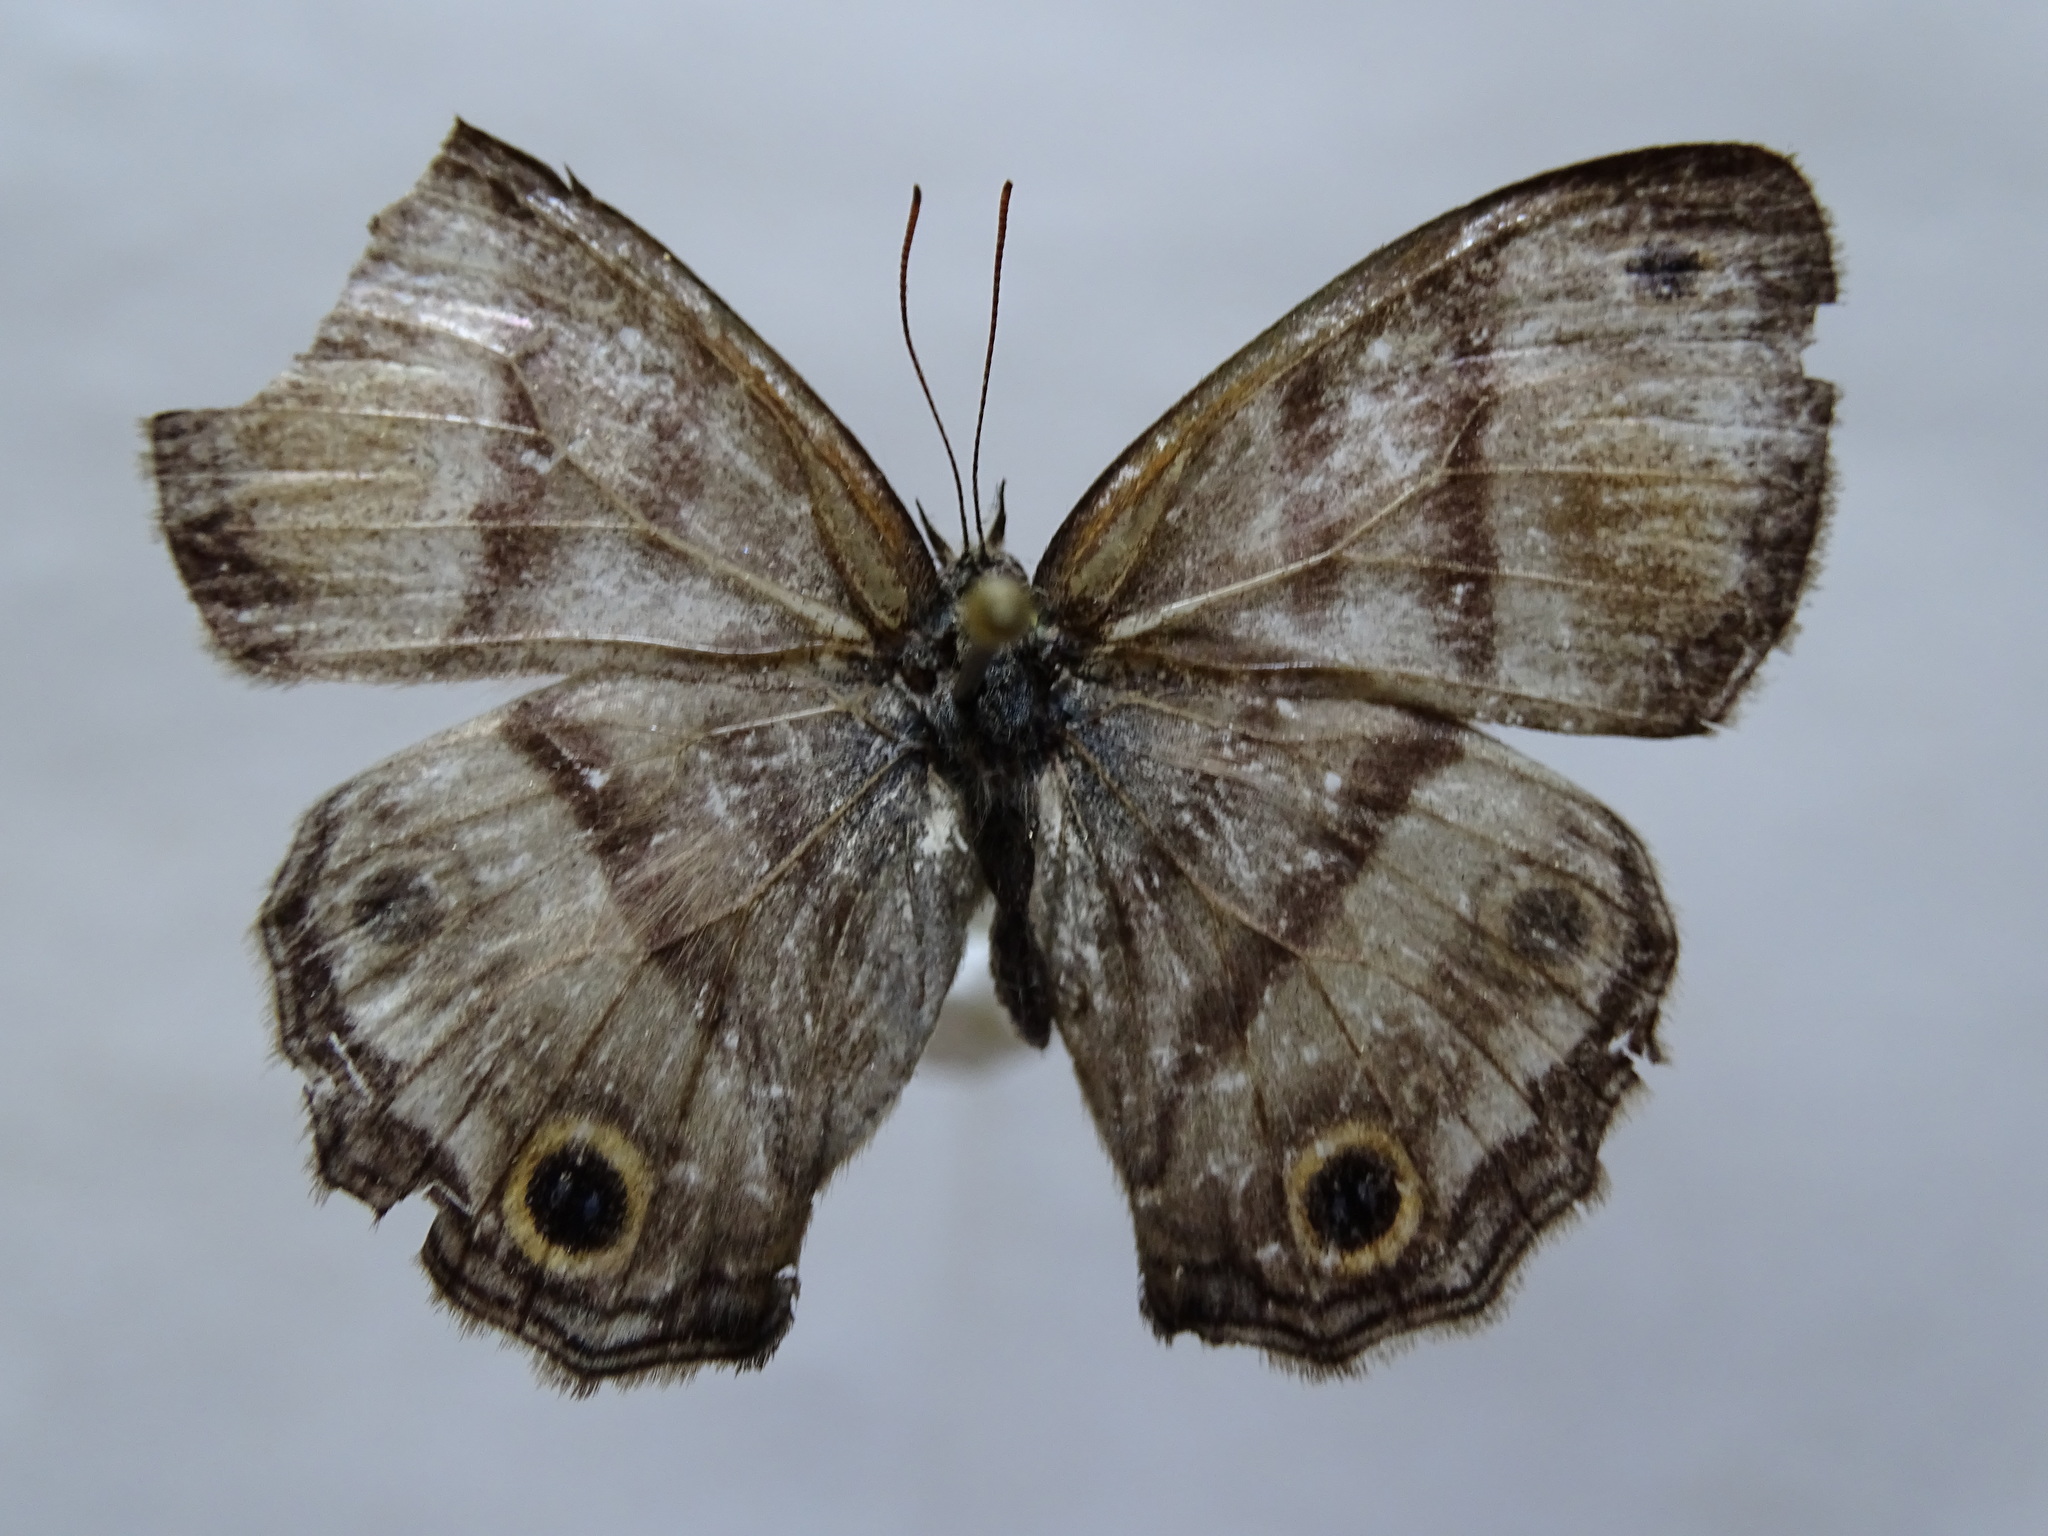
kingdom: Animalia
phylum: Arthropoda
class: Insecta
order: Lepidoptera
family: Nymphalidae
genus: Argyreuptychia
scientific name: Argyreuptychia labe
